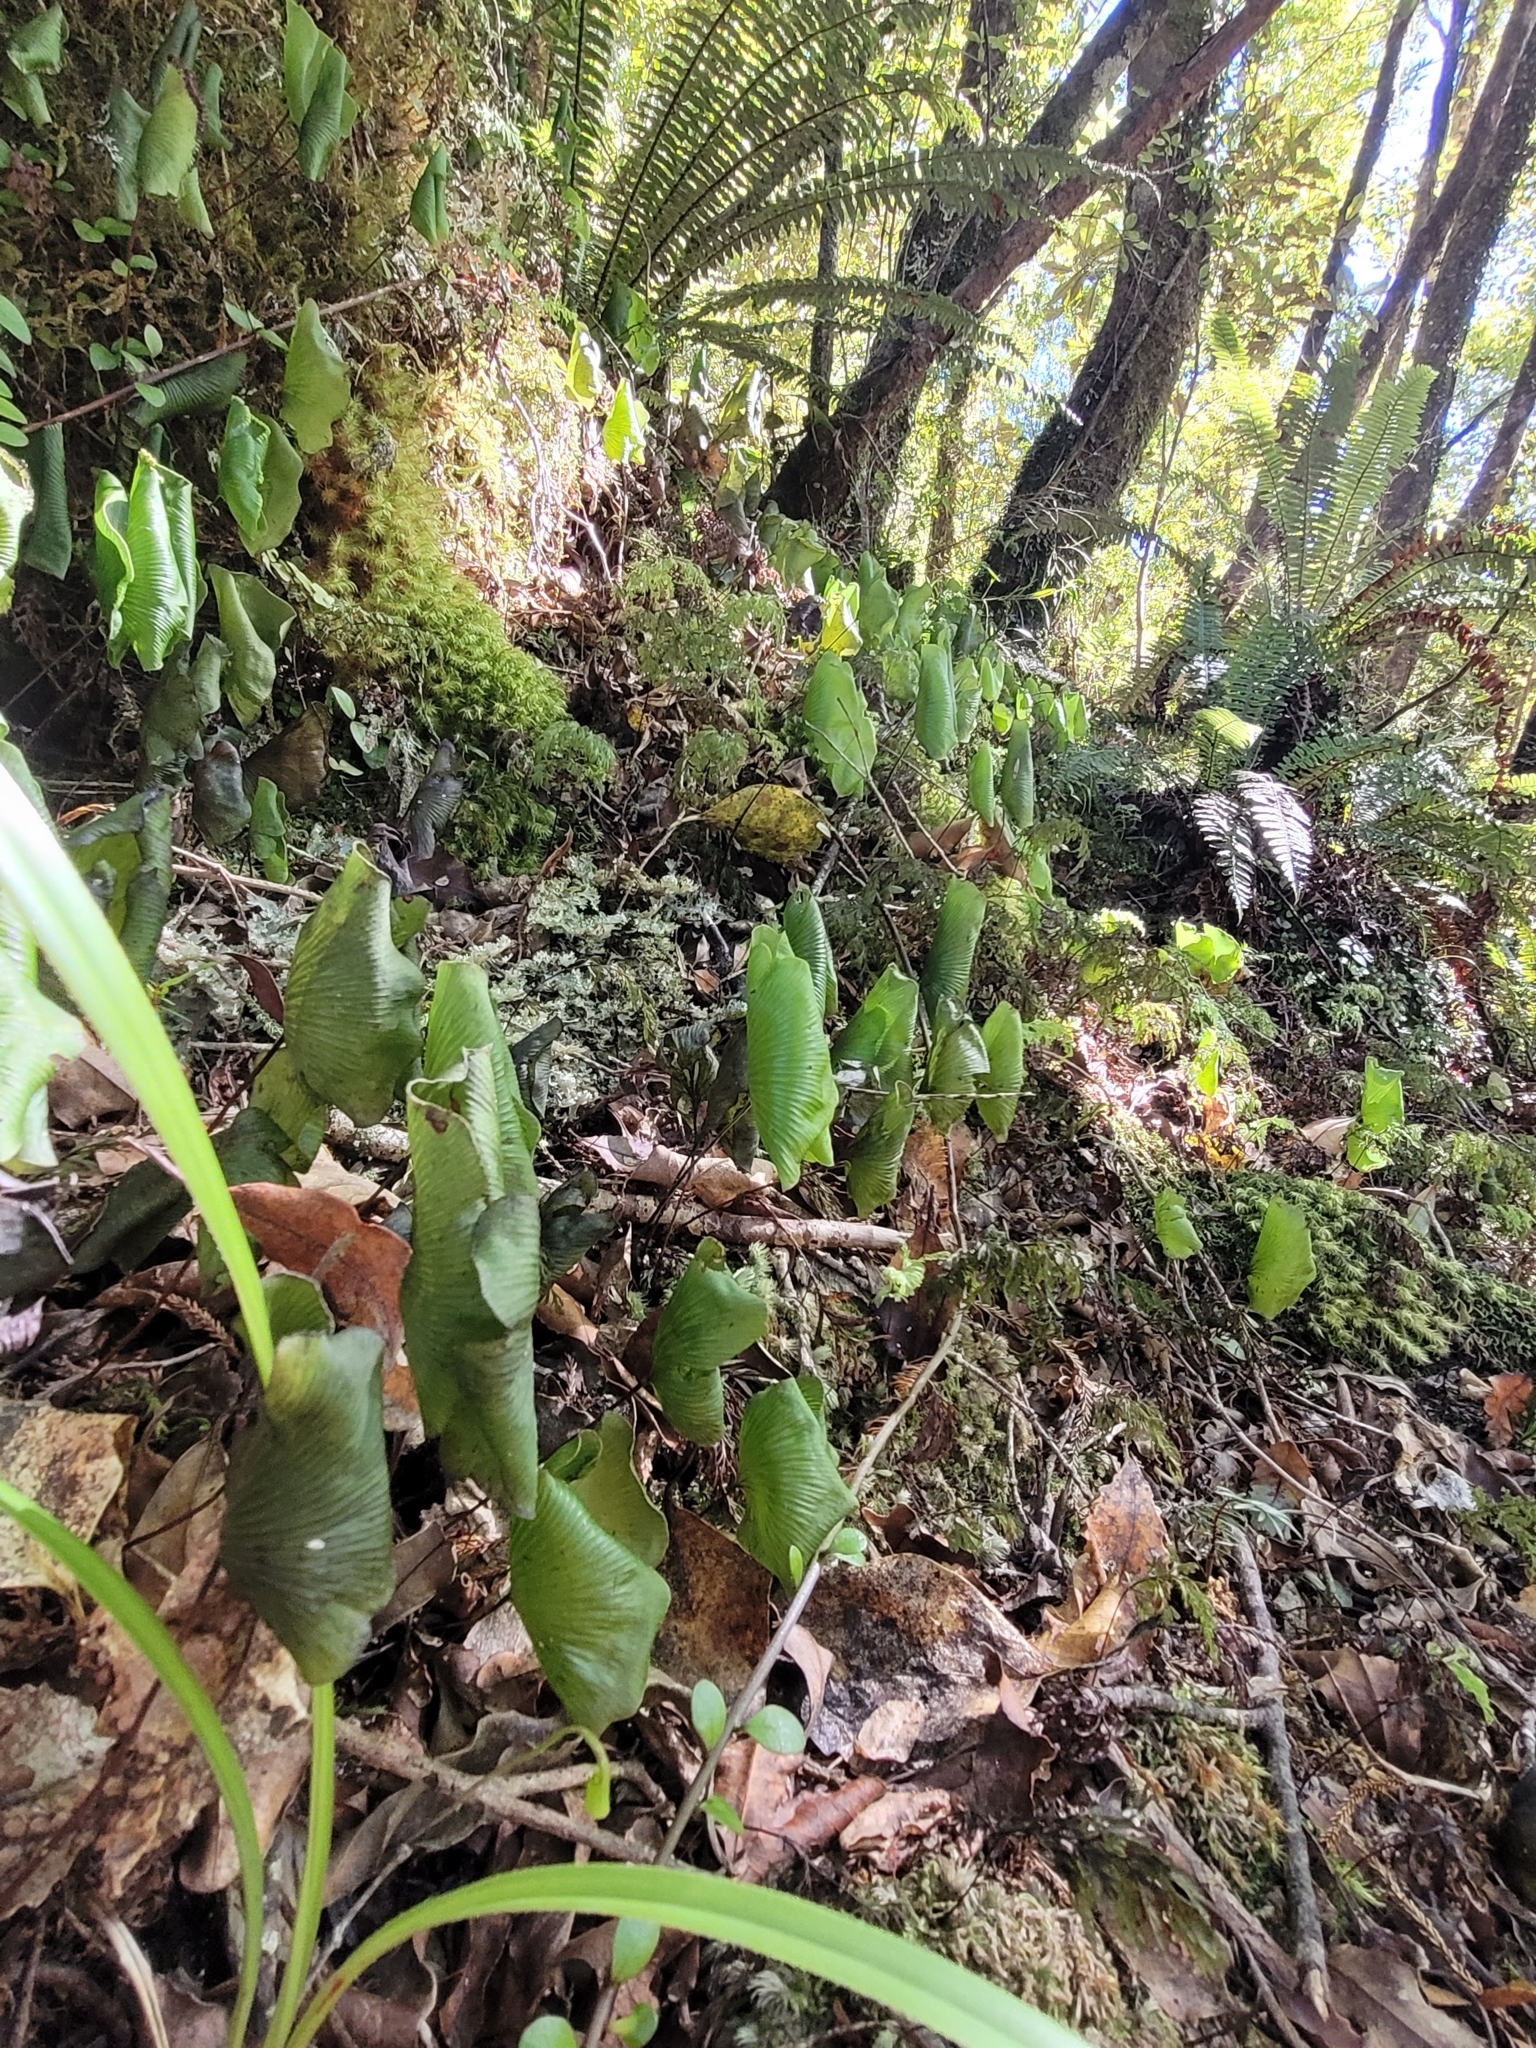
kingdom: Plantae
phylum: Tracheophyta
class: Polypodiopsida
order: Hymenophyllales
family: Hymenophyllaceae
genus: Hymenophyllum
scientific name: Hymenophyllum nephrophyllum
